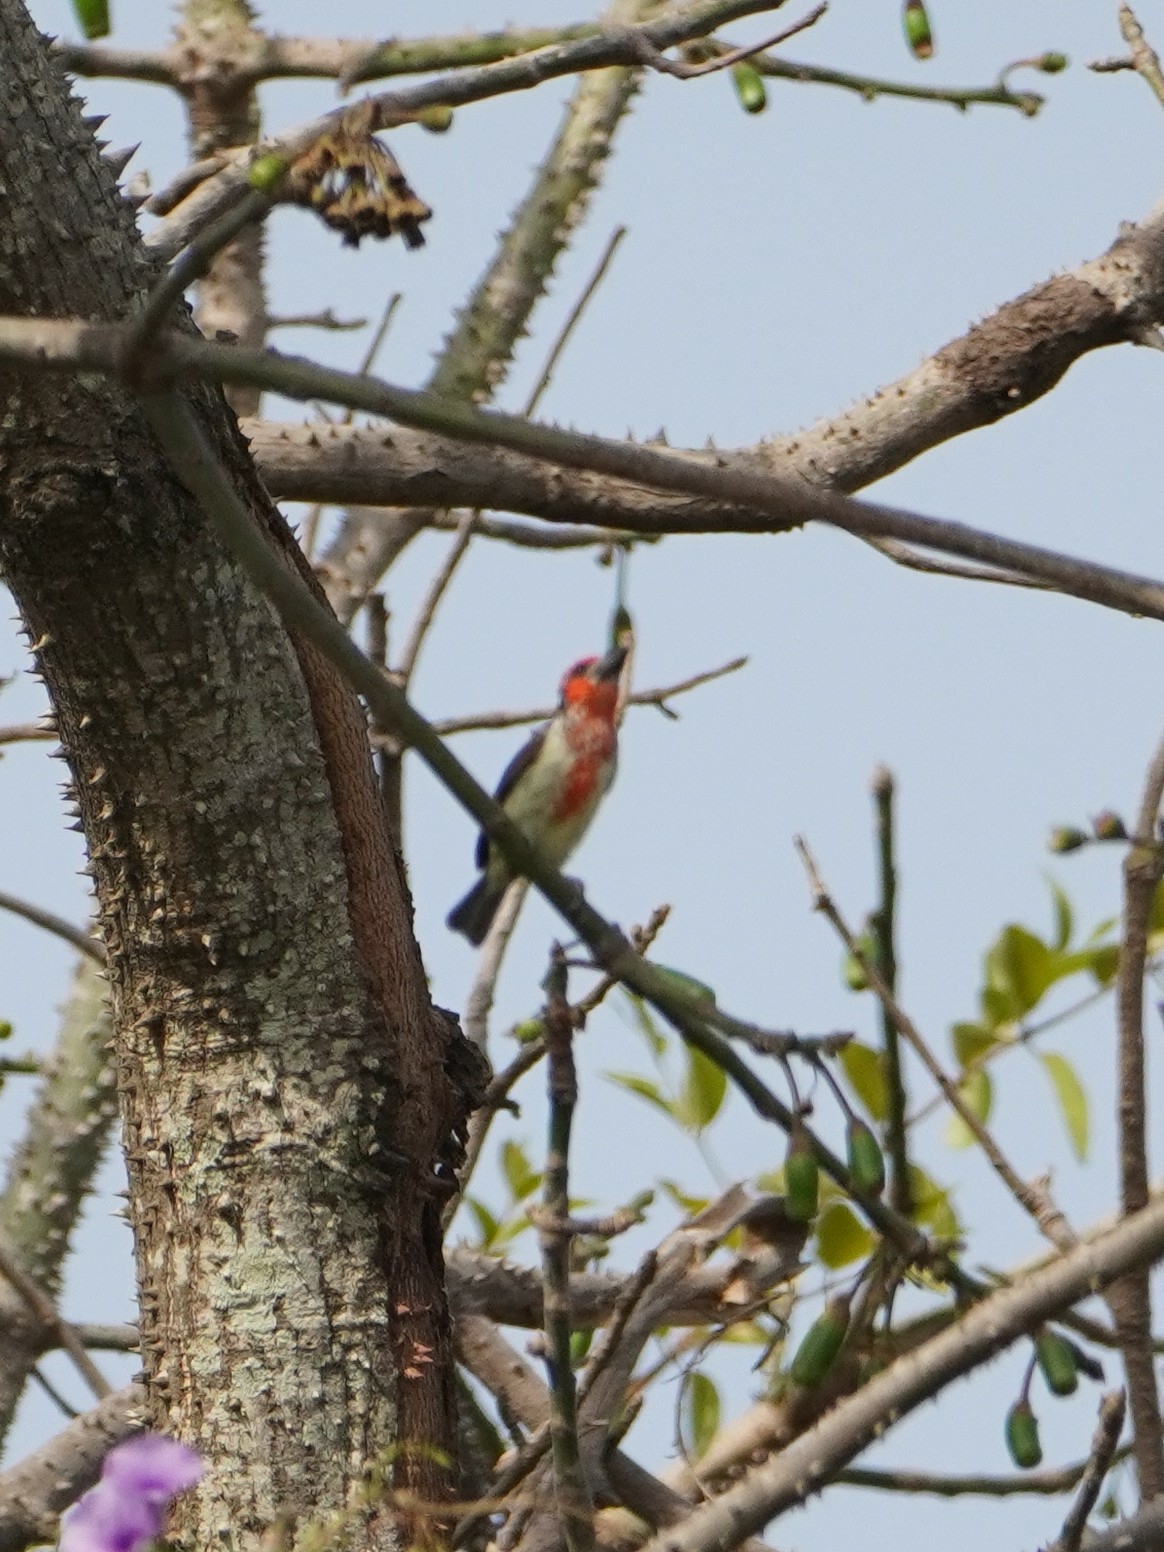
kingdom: Animalia
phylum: Chordata
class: Aves
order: Piciformes
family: Lybiidae
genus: Lybius
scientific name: Lybius vieilloti
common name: Vieillot's barbet
